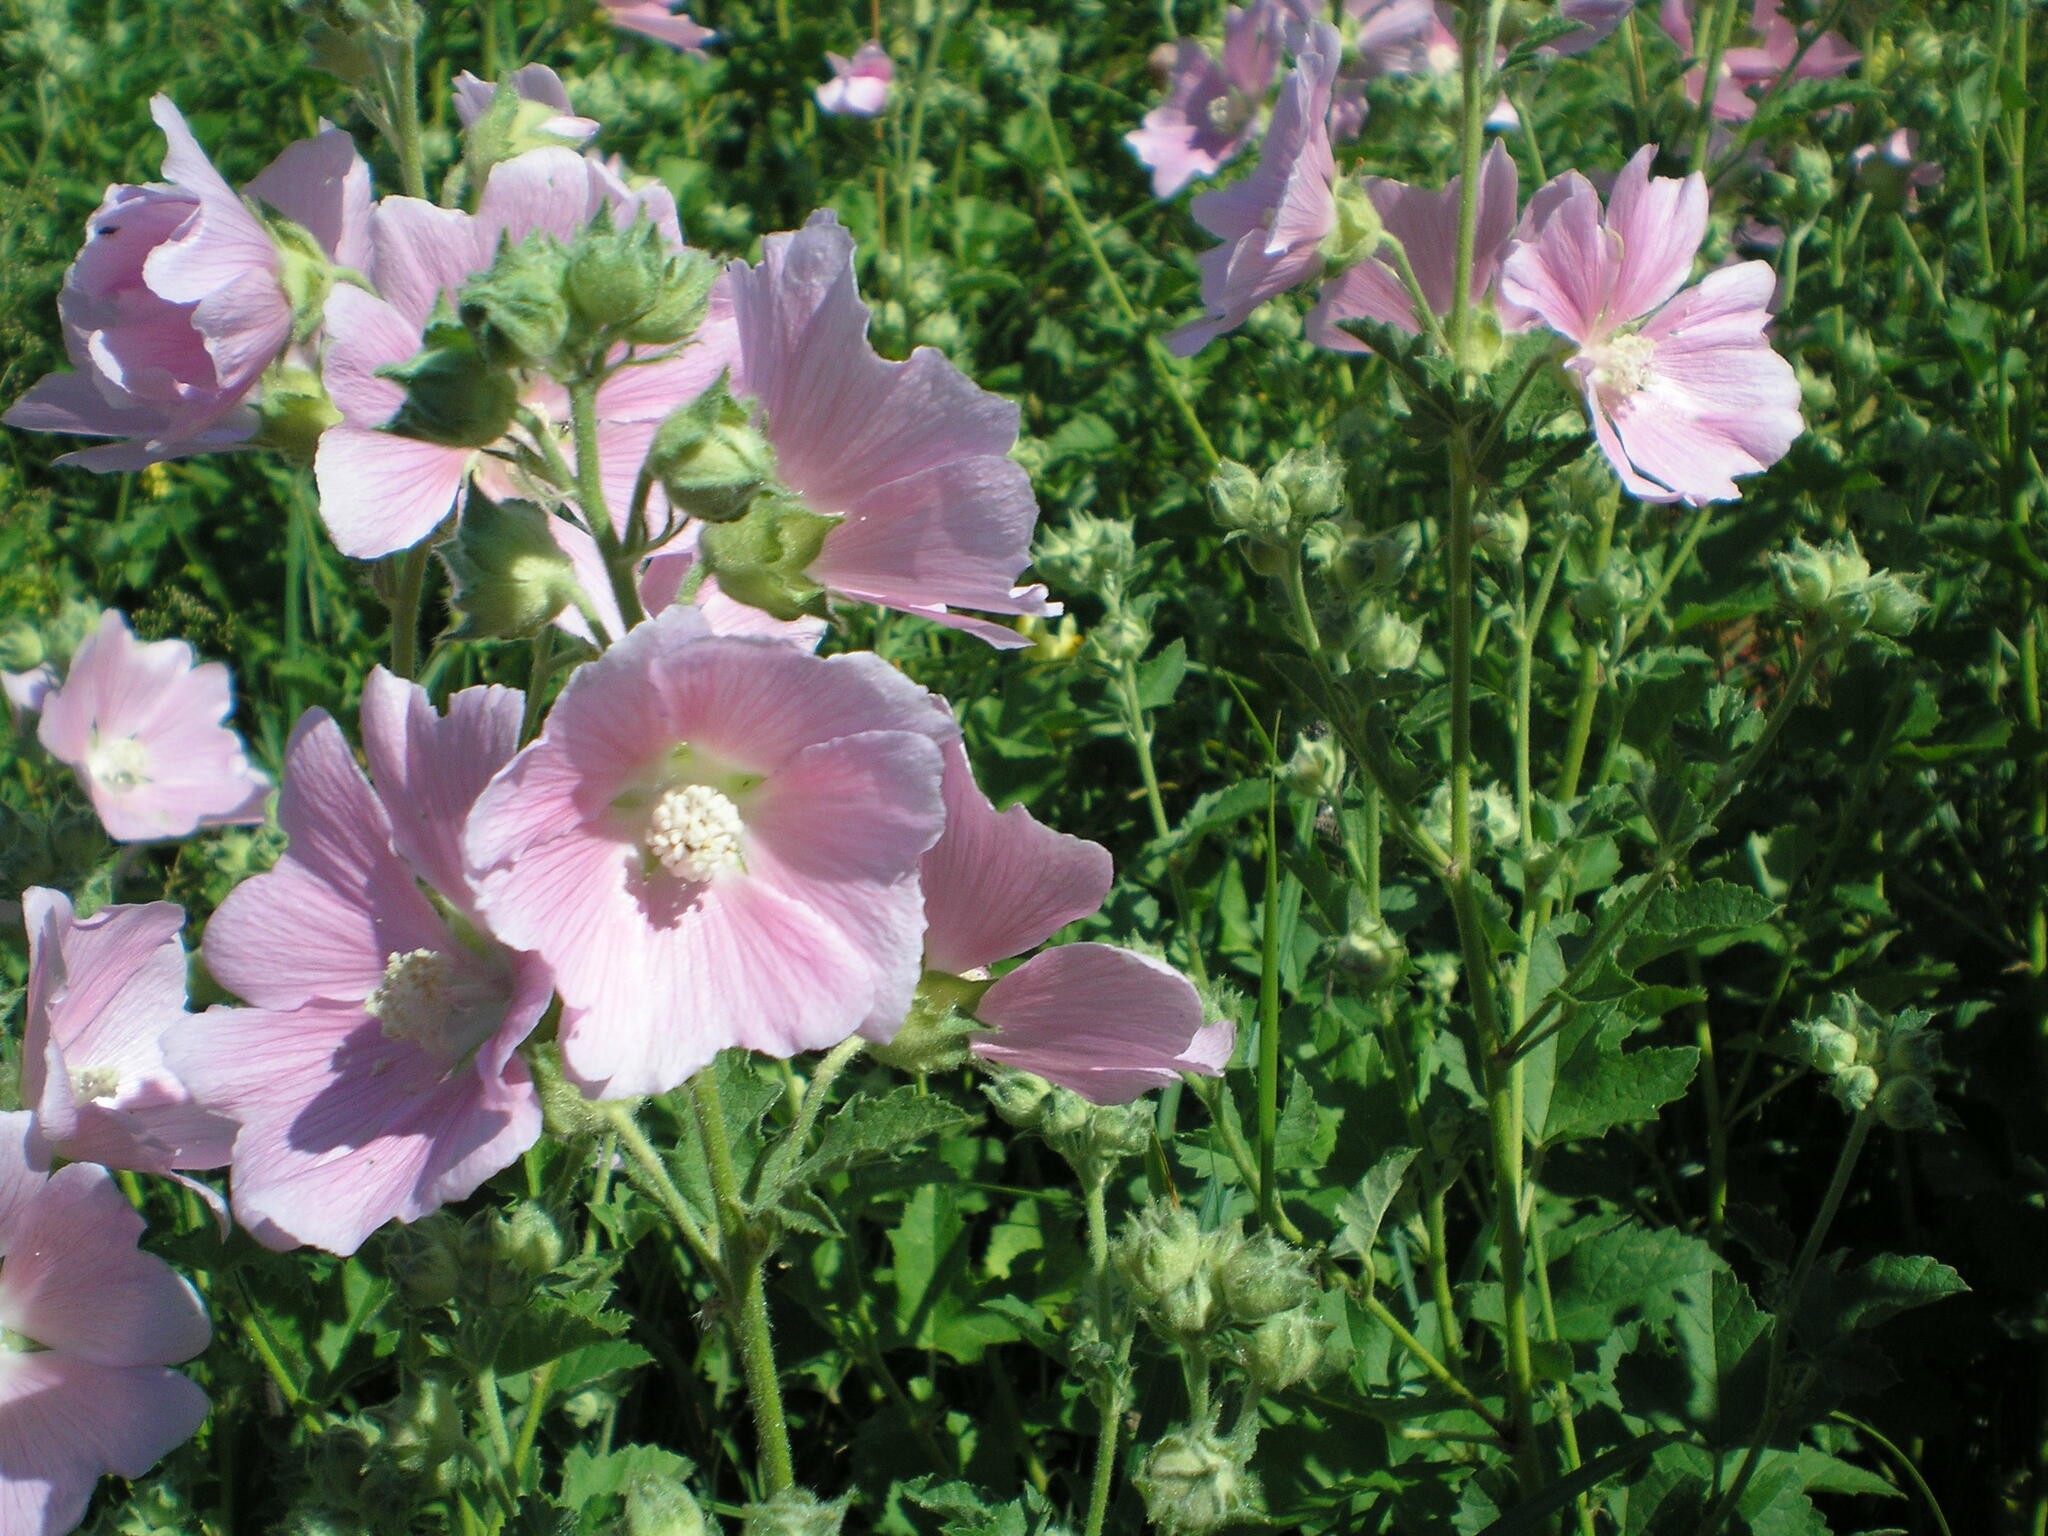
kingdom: Plantae
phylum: Tracheophyta
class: Magnoliopsida
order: Malvales
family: Malvaceae
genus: Malva
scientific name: Malva thuringiaca
